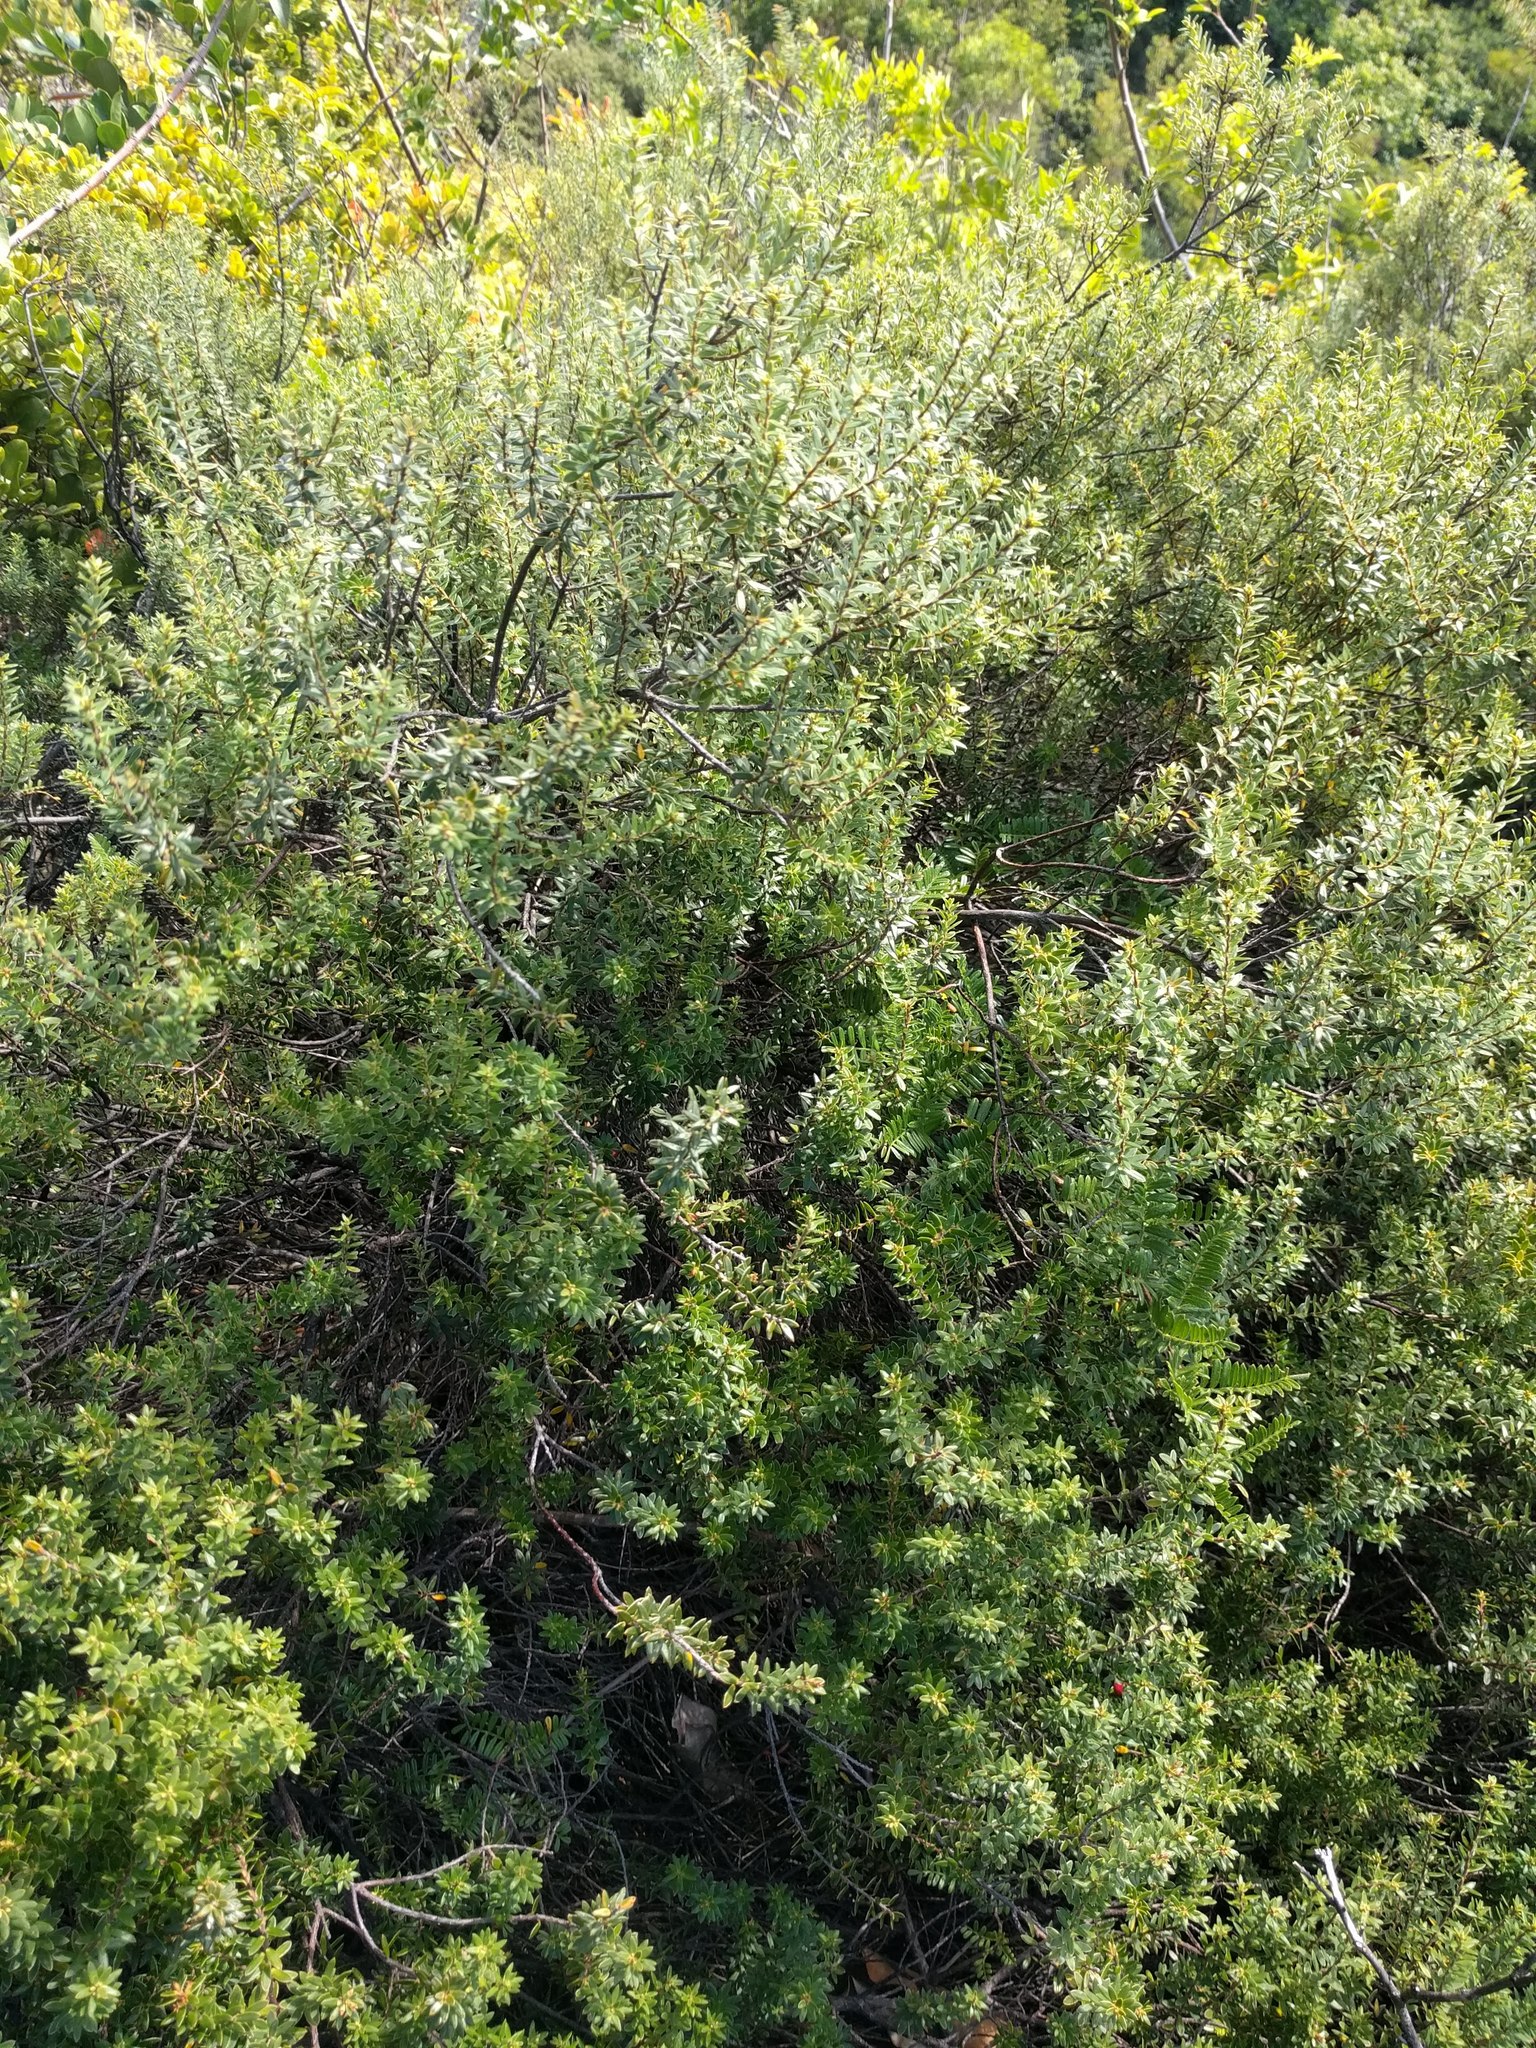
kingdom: Plantae
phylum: Tracheophyta
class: Magnoliopsida
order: Ericales
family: Ericaceae
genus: Leptecophylla
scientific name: Leptecophylla tameiameiae
